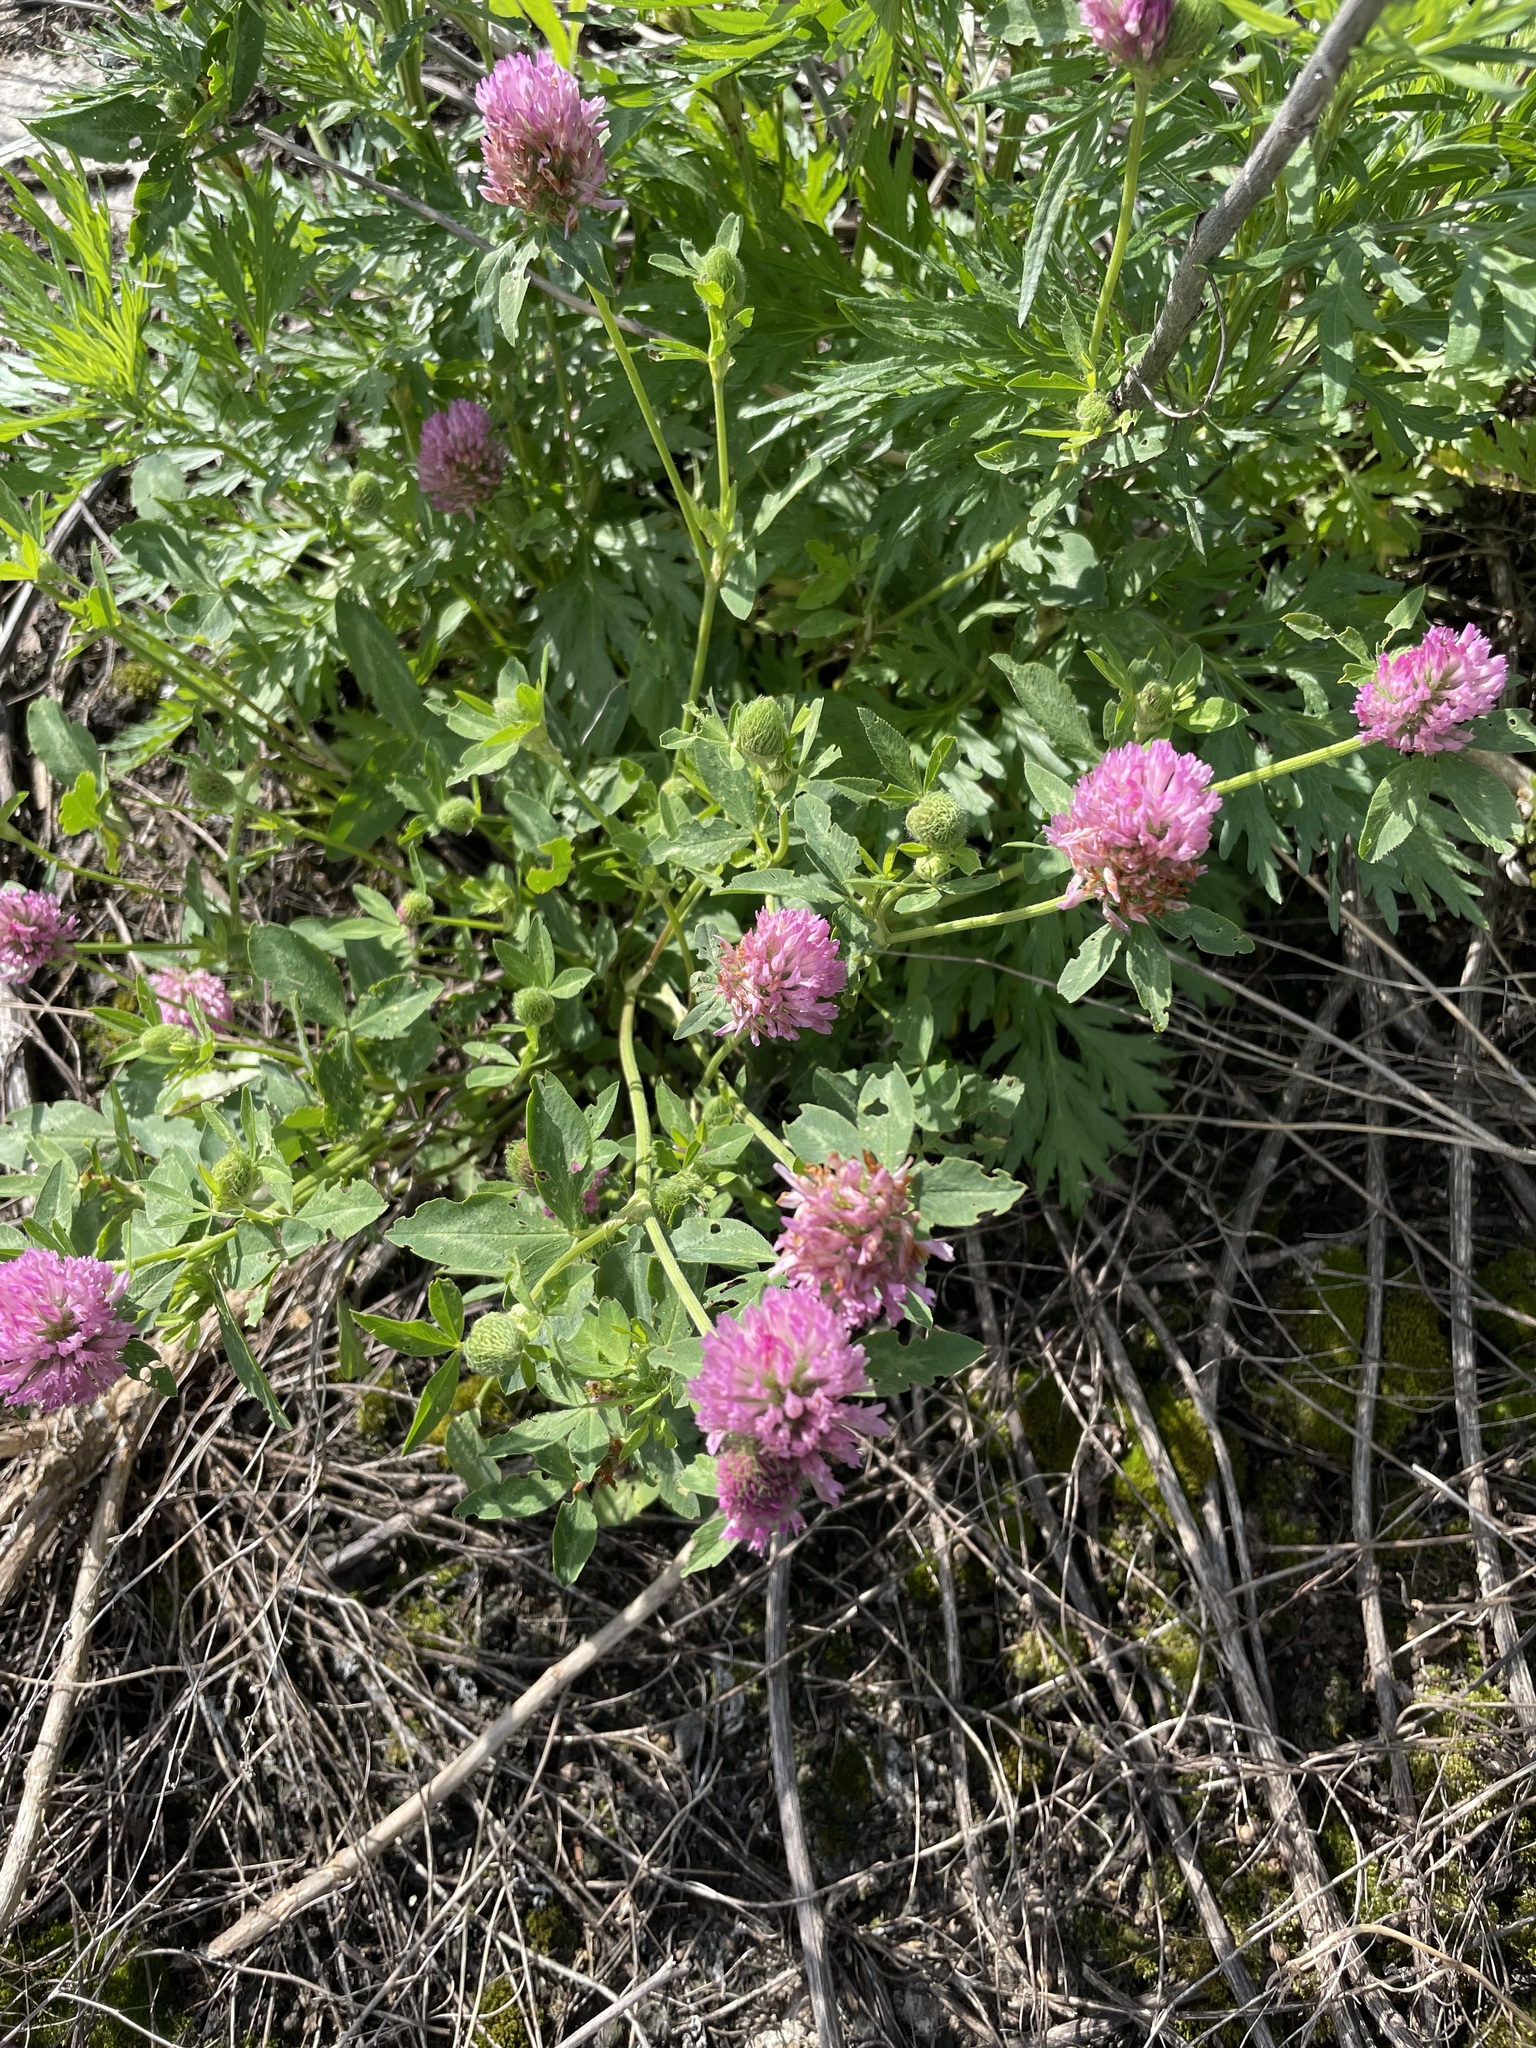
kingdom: Plantae
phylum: Tracheophyta
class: Magnoliopsida
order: Fabales
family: Fabaceae
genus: Trifolium
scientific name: Trifolium pratense
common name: Red clover
